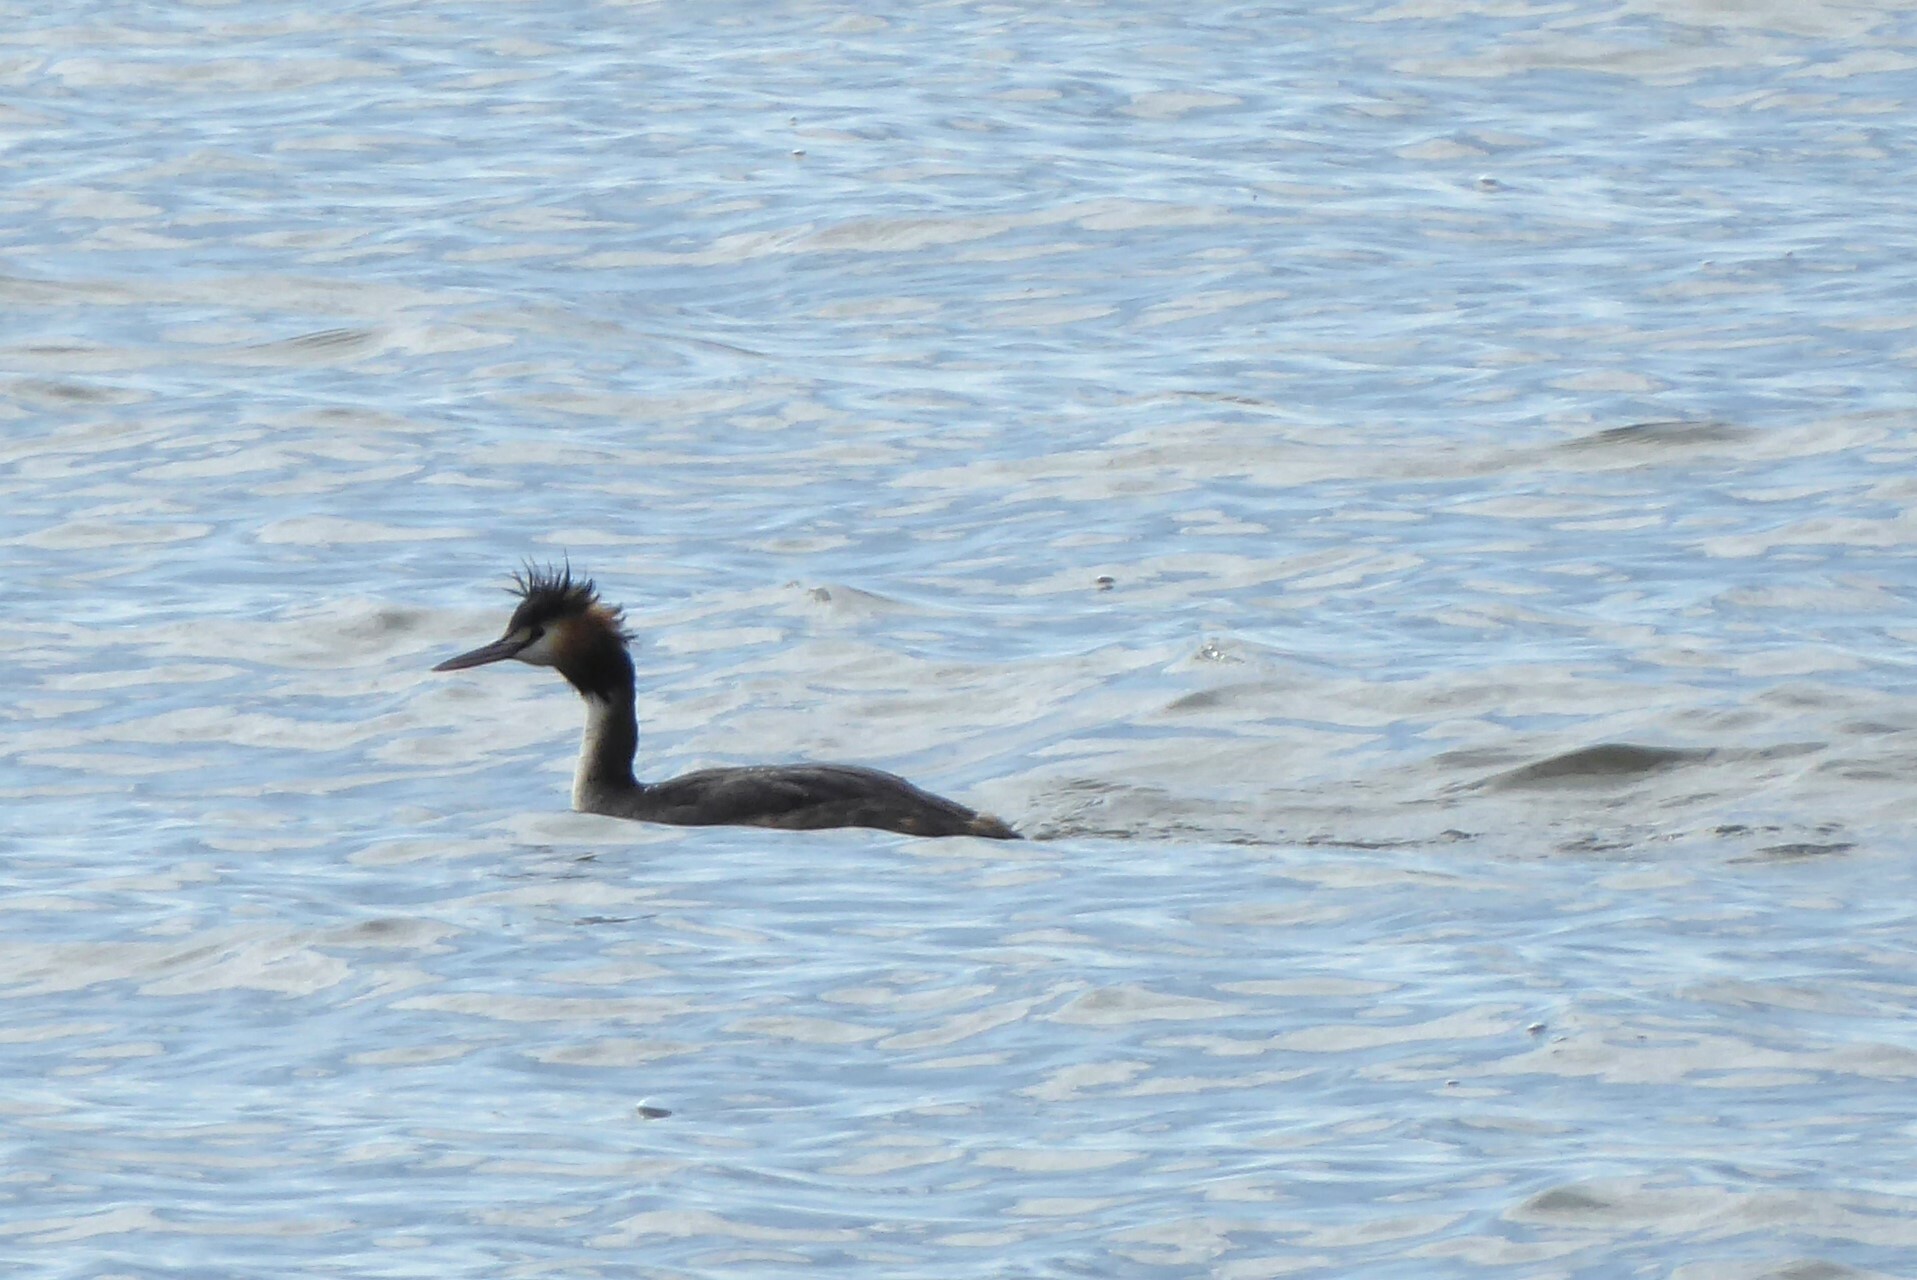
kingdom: Animalia
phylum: Chordata
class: Aves
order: Podicipediformes
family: Podicipedidae
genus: Podiceps
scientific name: Podiceps cristatus
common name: Great crested grebe
